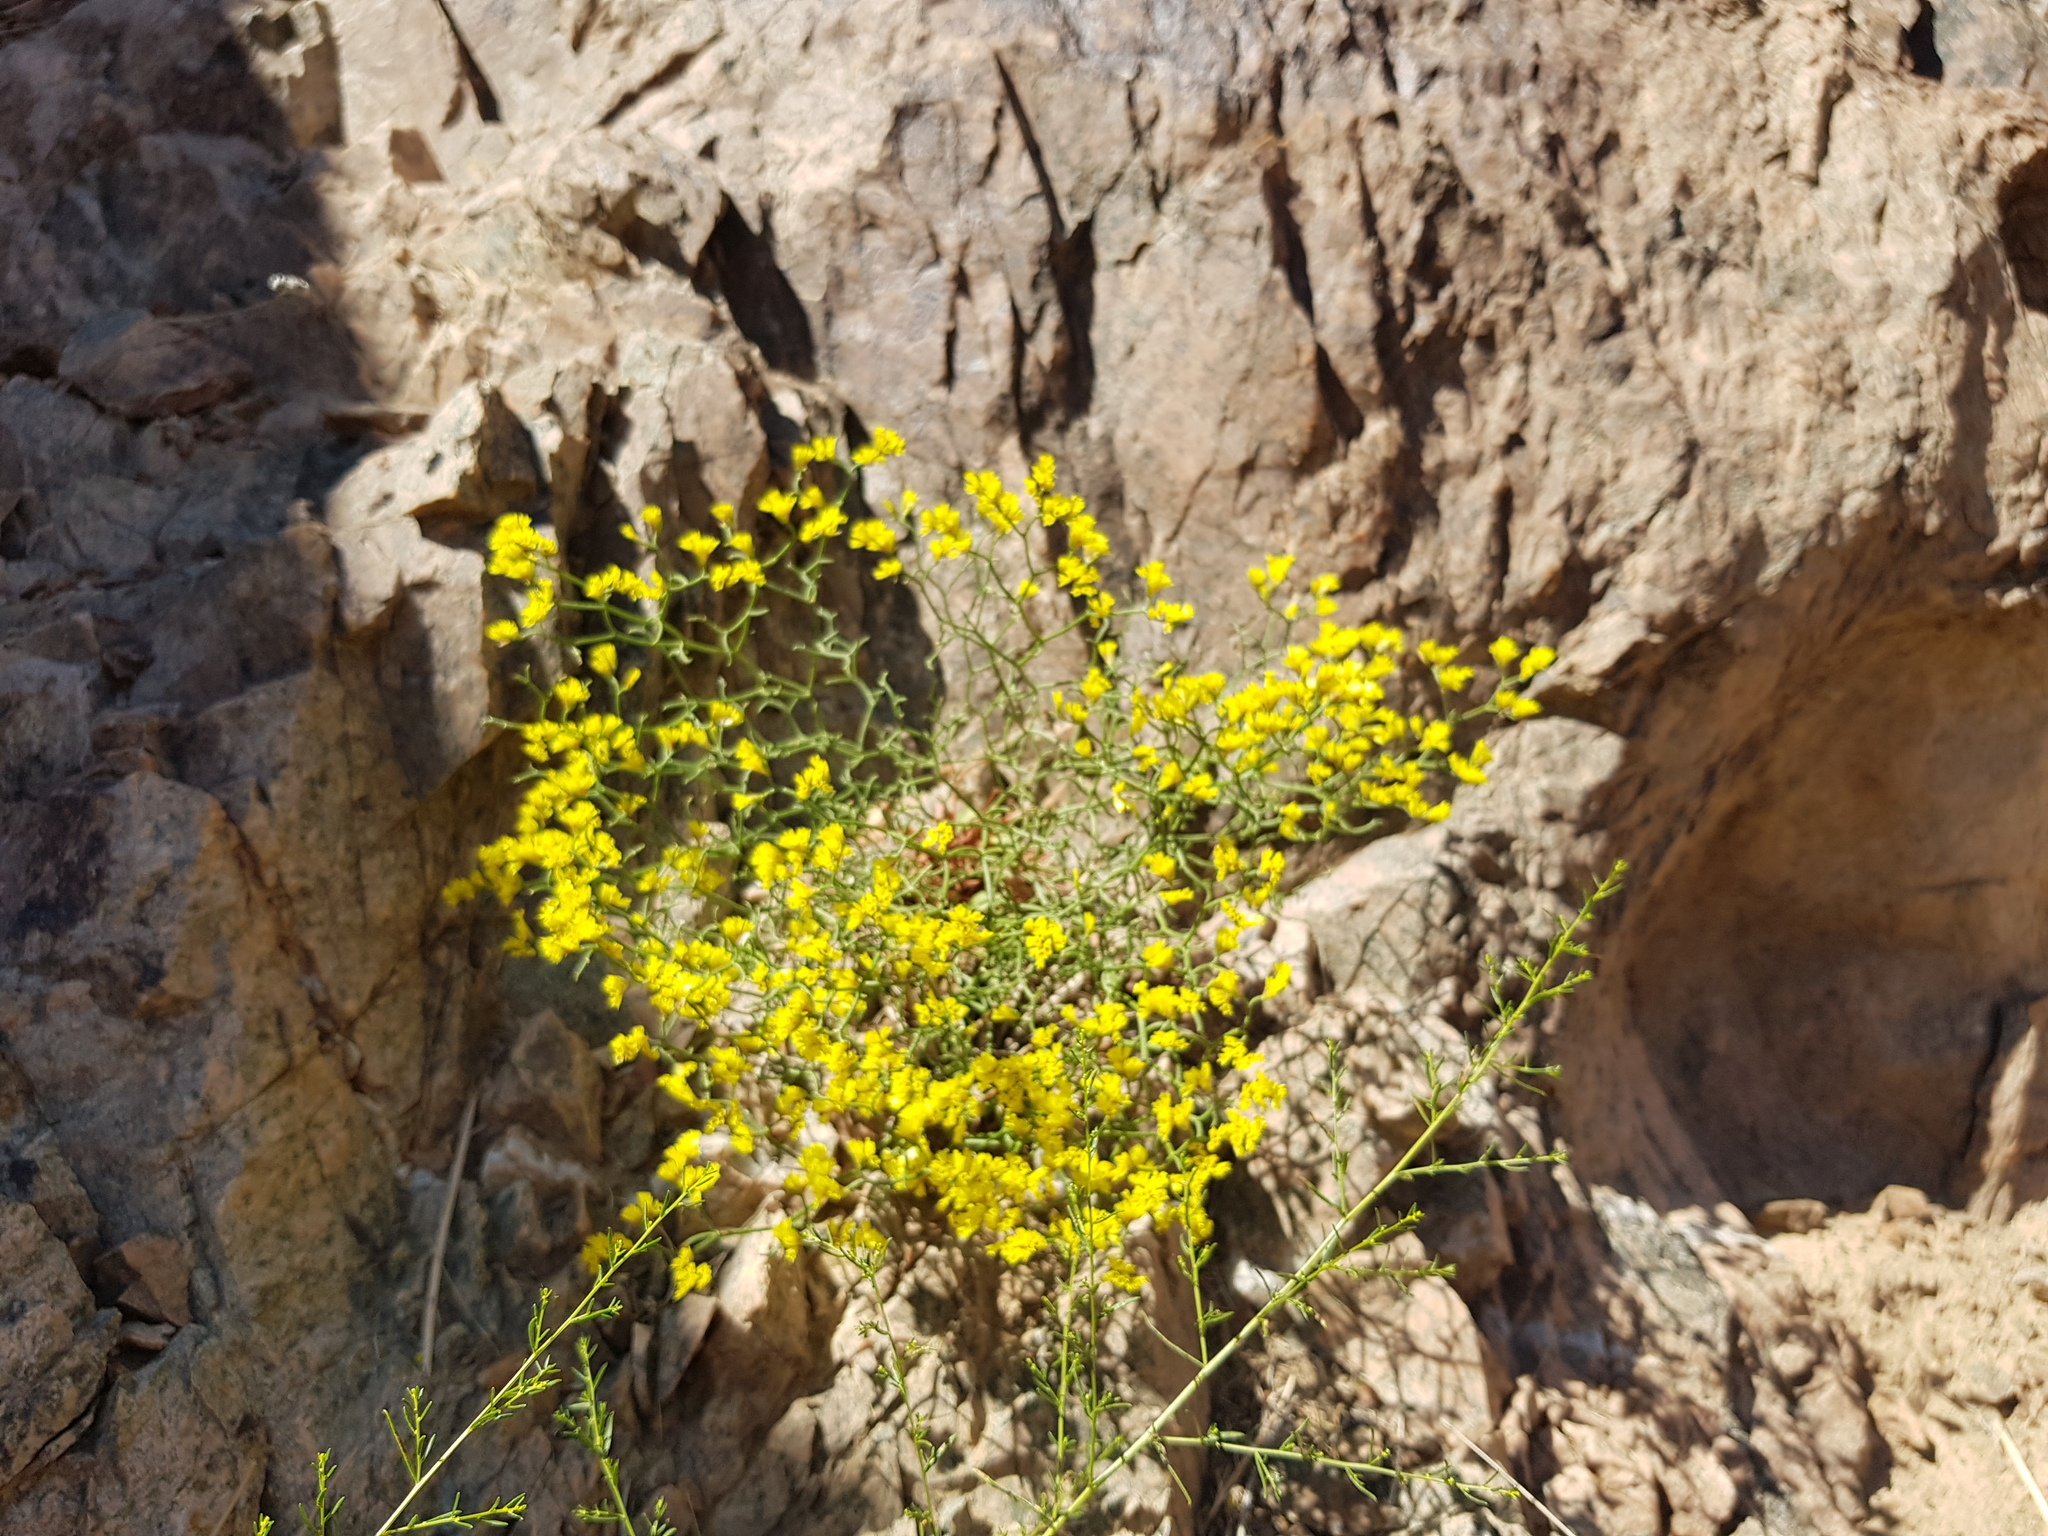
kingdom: Plantae
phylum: Tracheophyta
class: Magnoliopsida
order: Caryophyllales
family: Plumbaginaceae
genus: Limonium
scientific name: Limonium aureum
